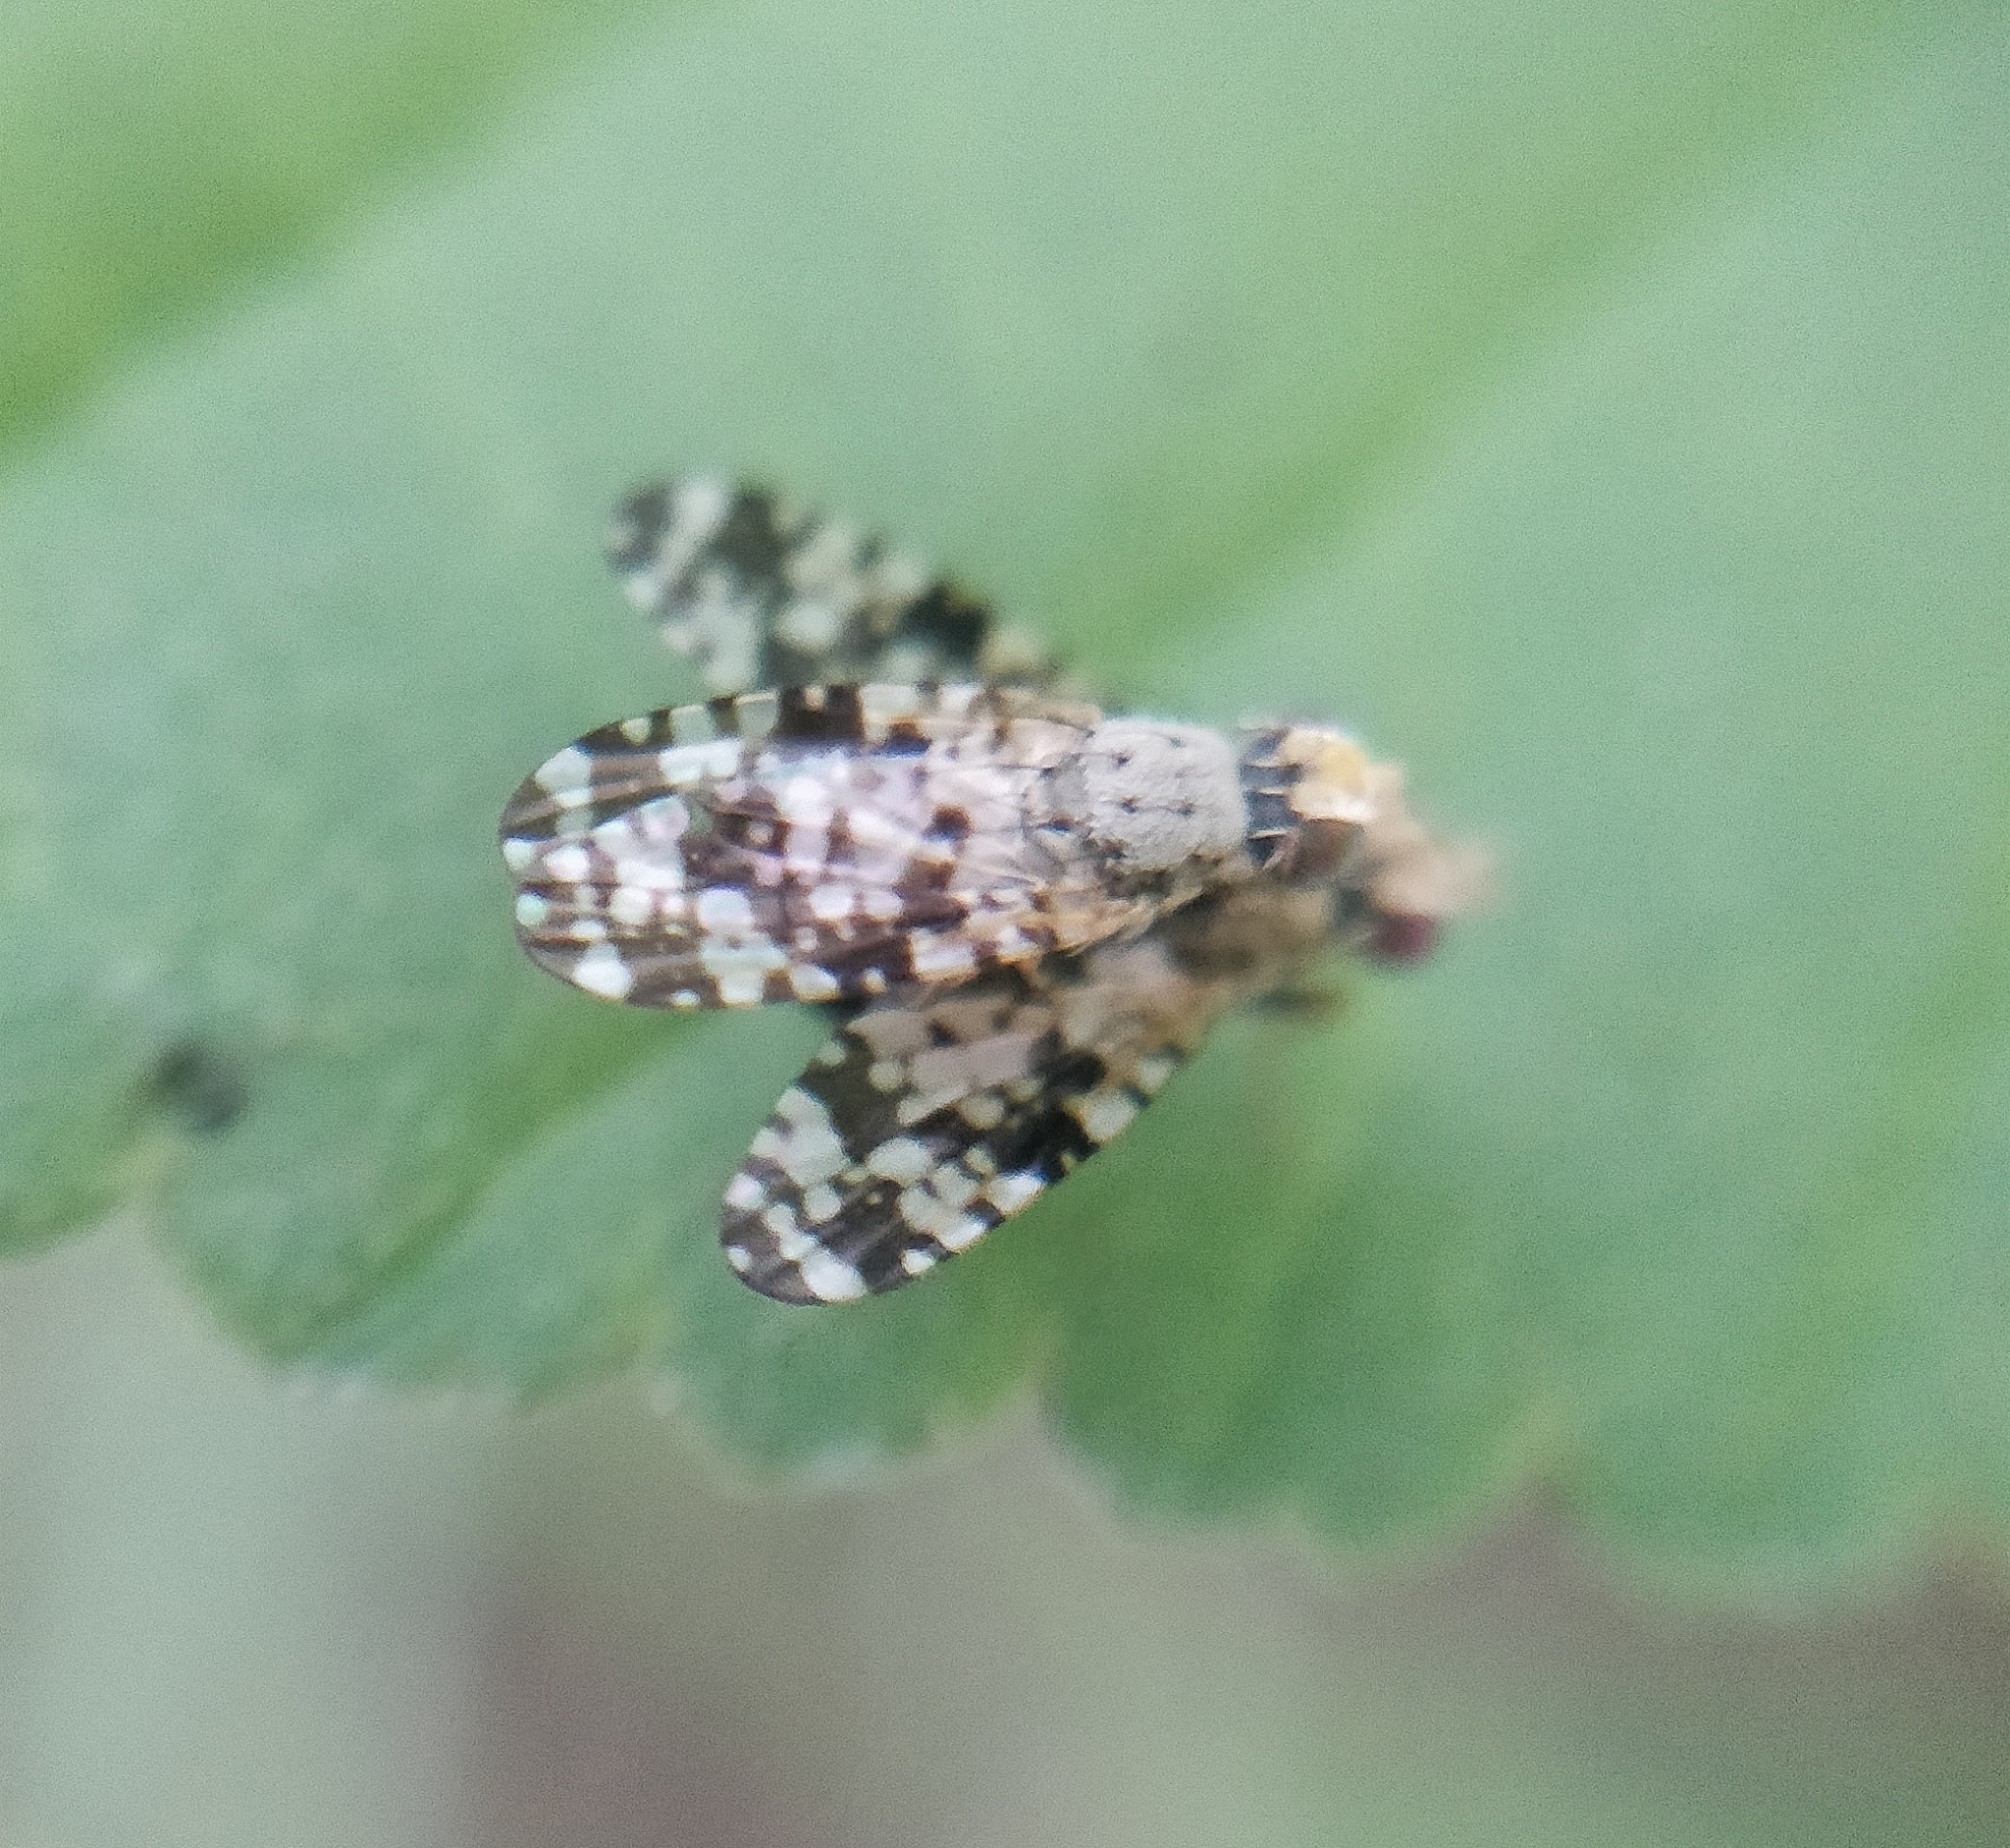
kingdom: Animalia
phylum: Arthropoda
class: Insecta
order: Diptera
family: Tephritidae
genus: Campiglossa
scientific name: Campiglossa producta
